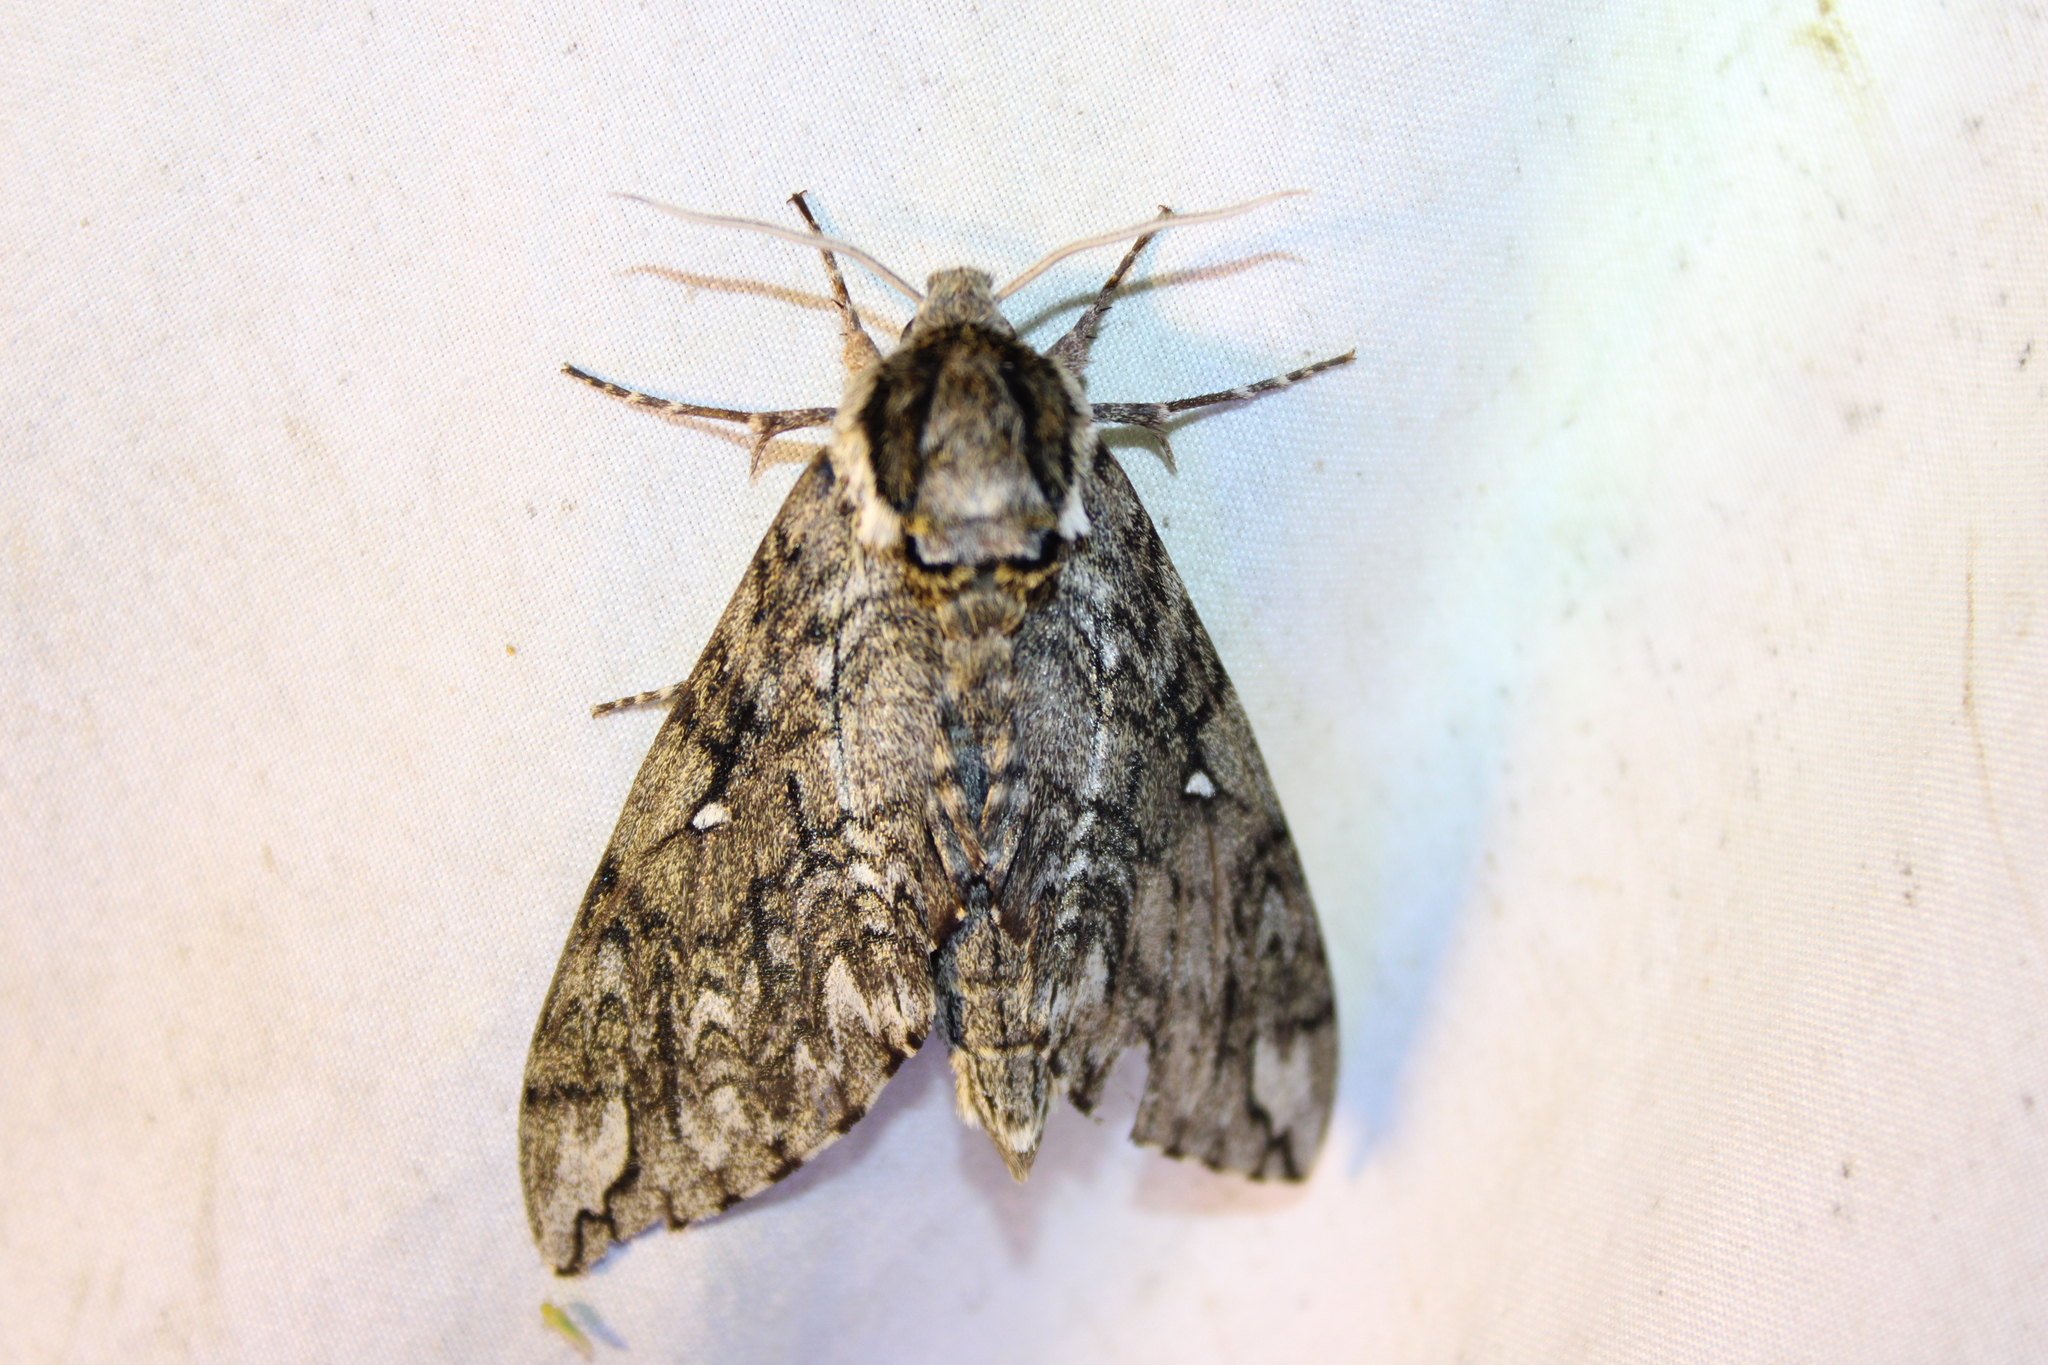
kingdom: Animalia
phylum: Arthropoda
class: Insecta
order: Lepidoptera
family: Sphingidae
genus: Ceratomia
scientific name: Ceratomia undulosa
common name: Waved sphinx
